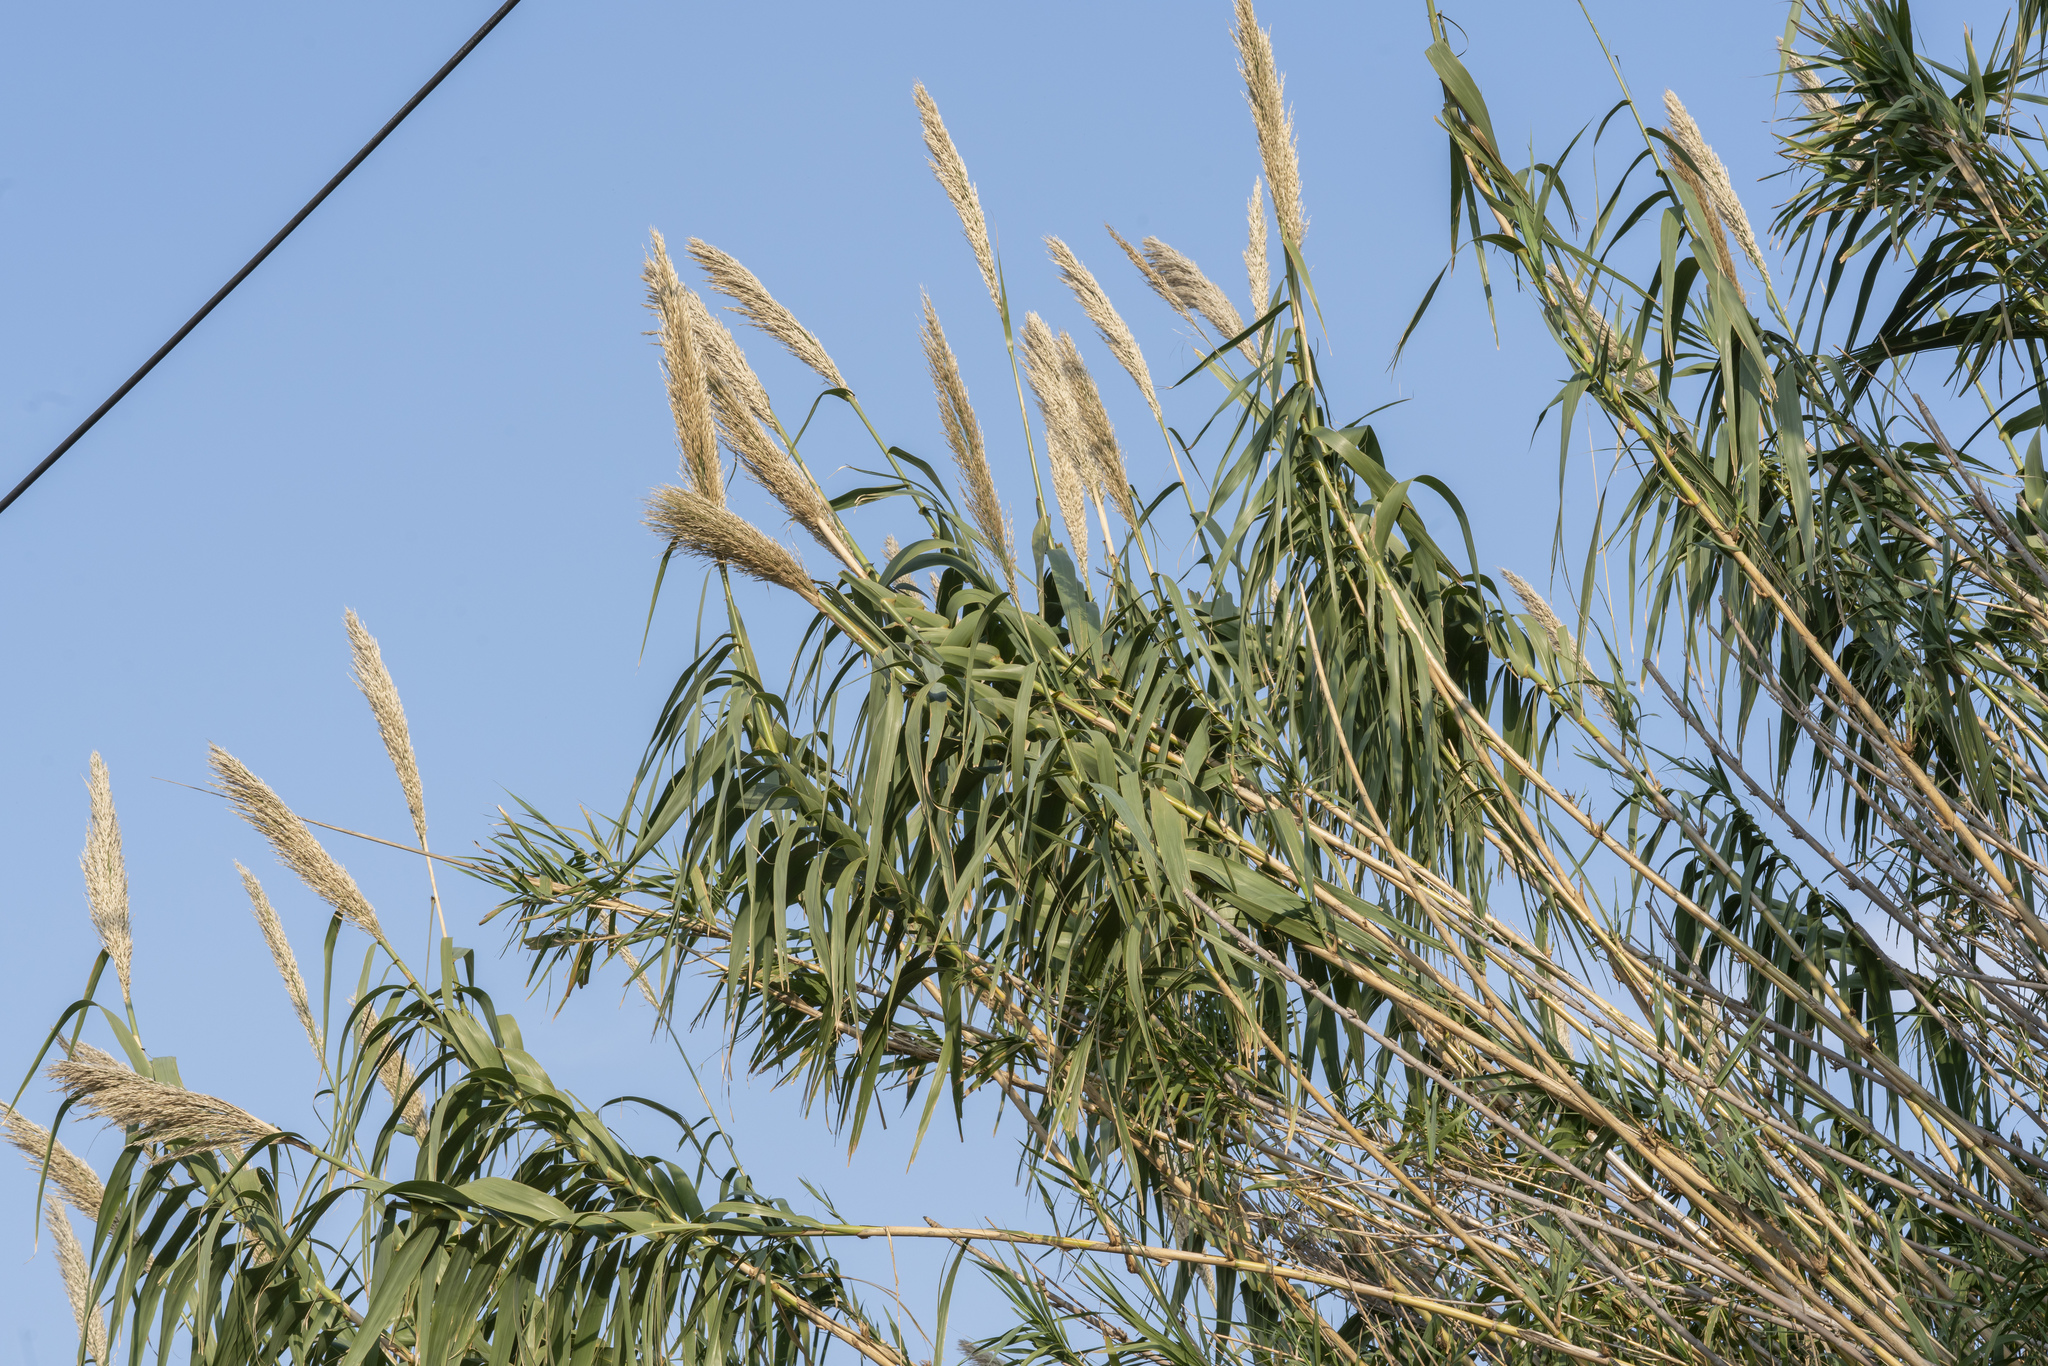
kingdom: Plantae
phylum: Tracheophyta
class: Liliopsida
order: Poales
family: Poaceae
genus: Arundo
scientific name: Arundo donax
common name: Giant reed
